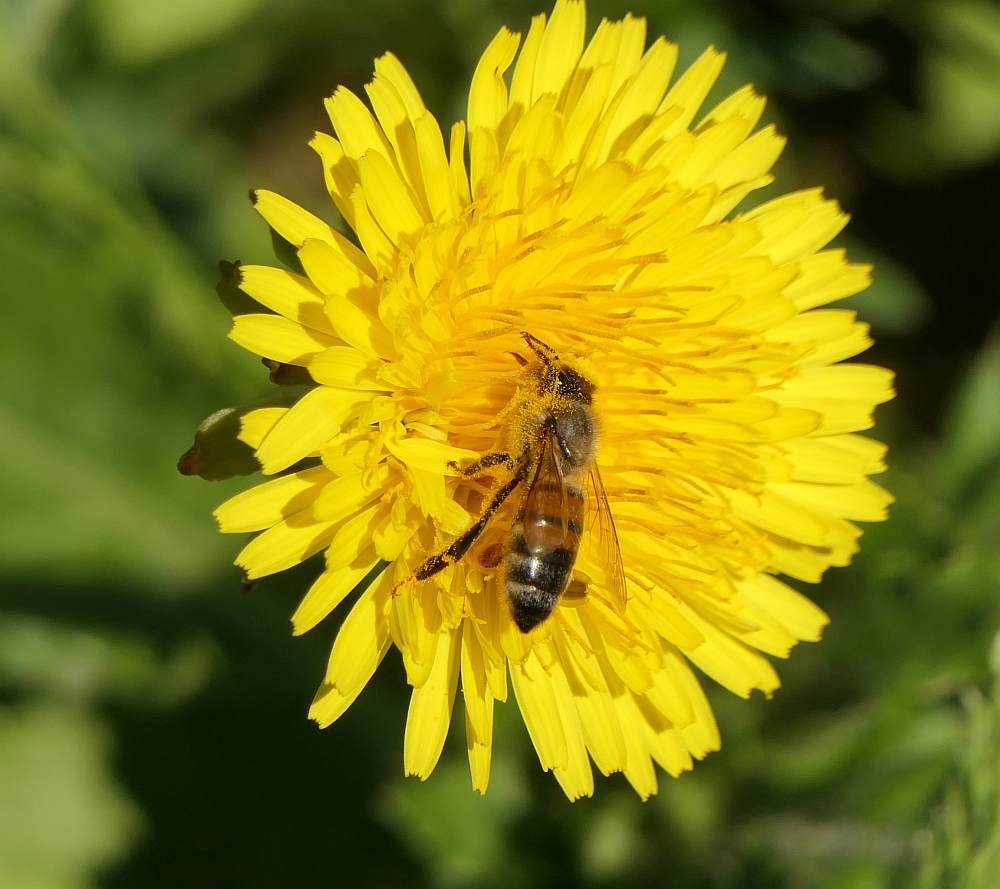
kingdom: Animalia
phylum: Arthropoda
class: Insecta
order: Hymenoptera
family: Apidae
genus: Apis
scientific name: Apis mellifera
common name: Honey bee
